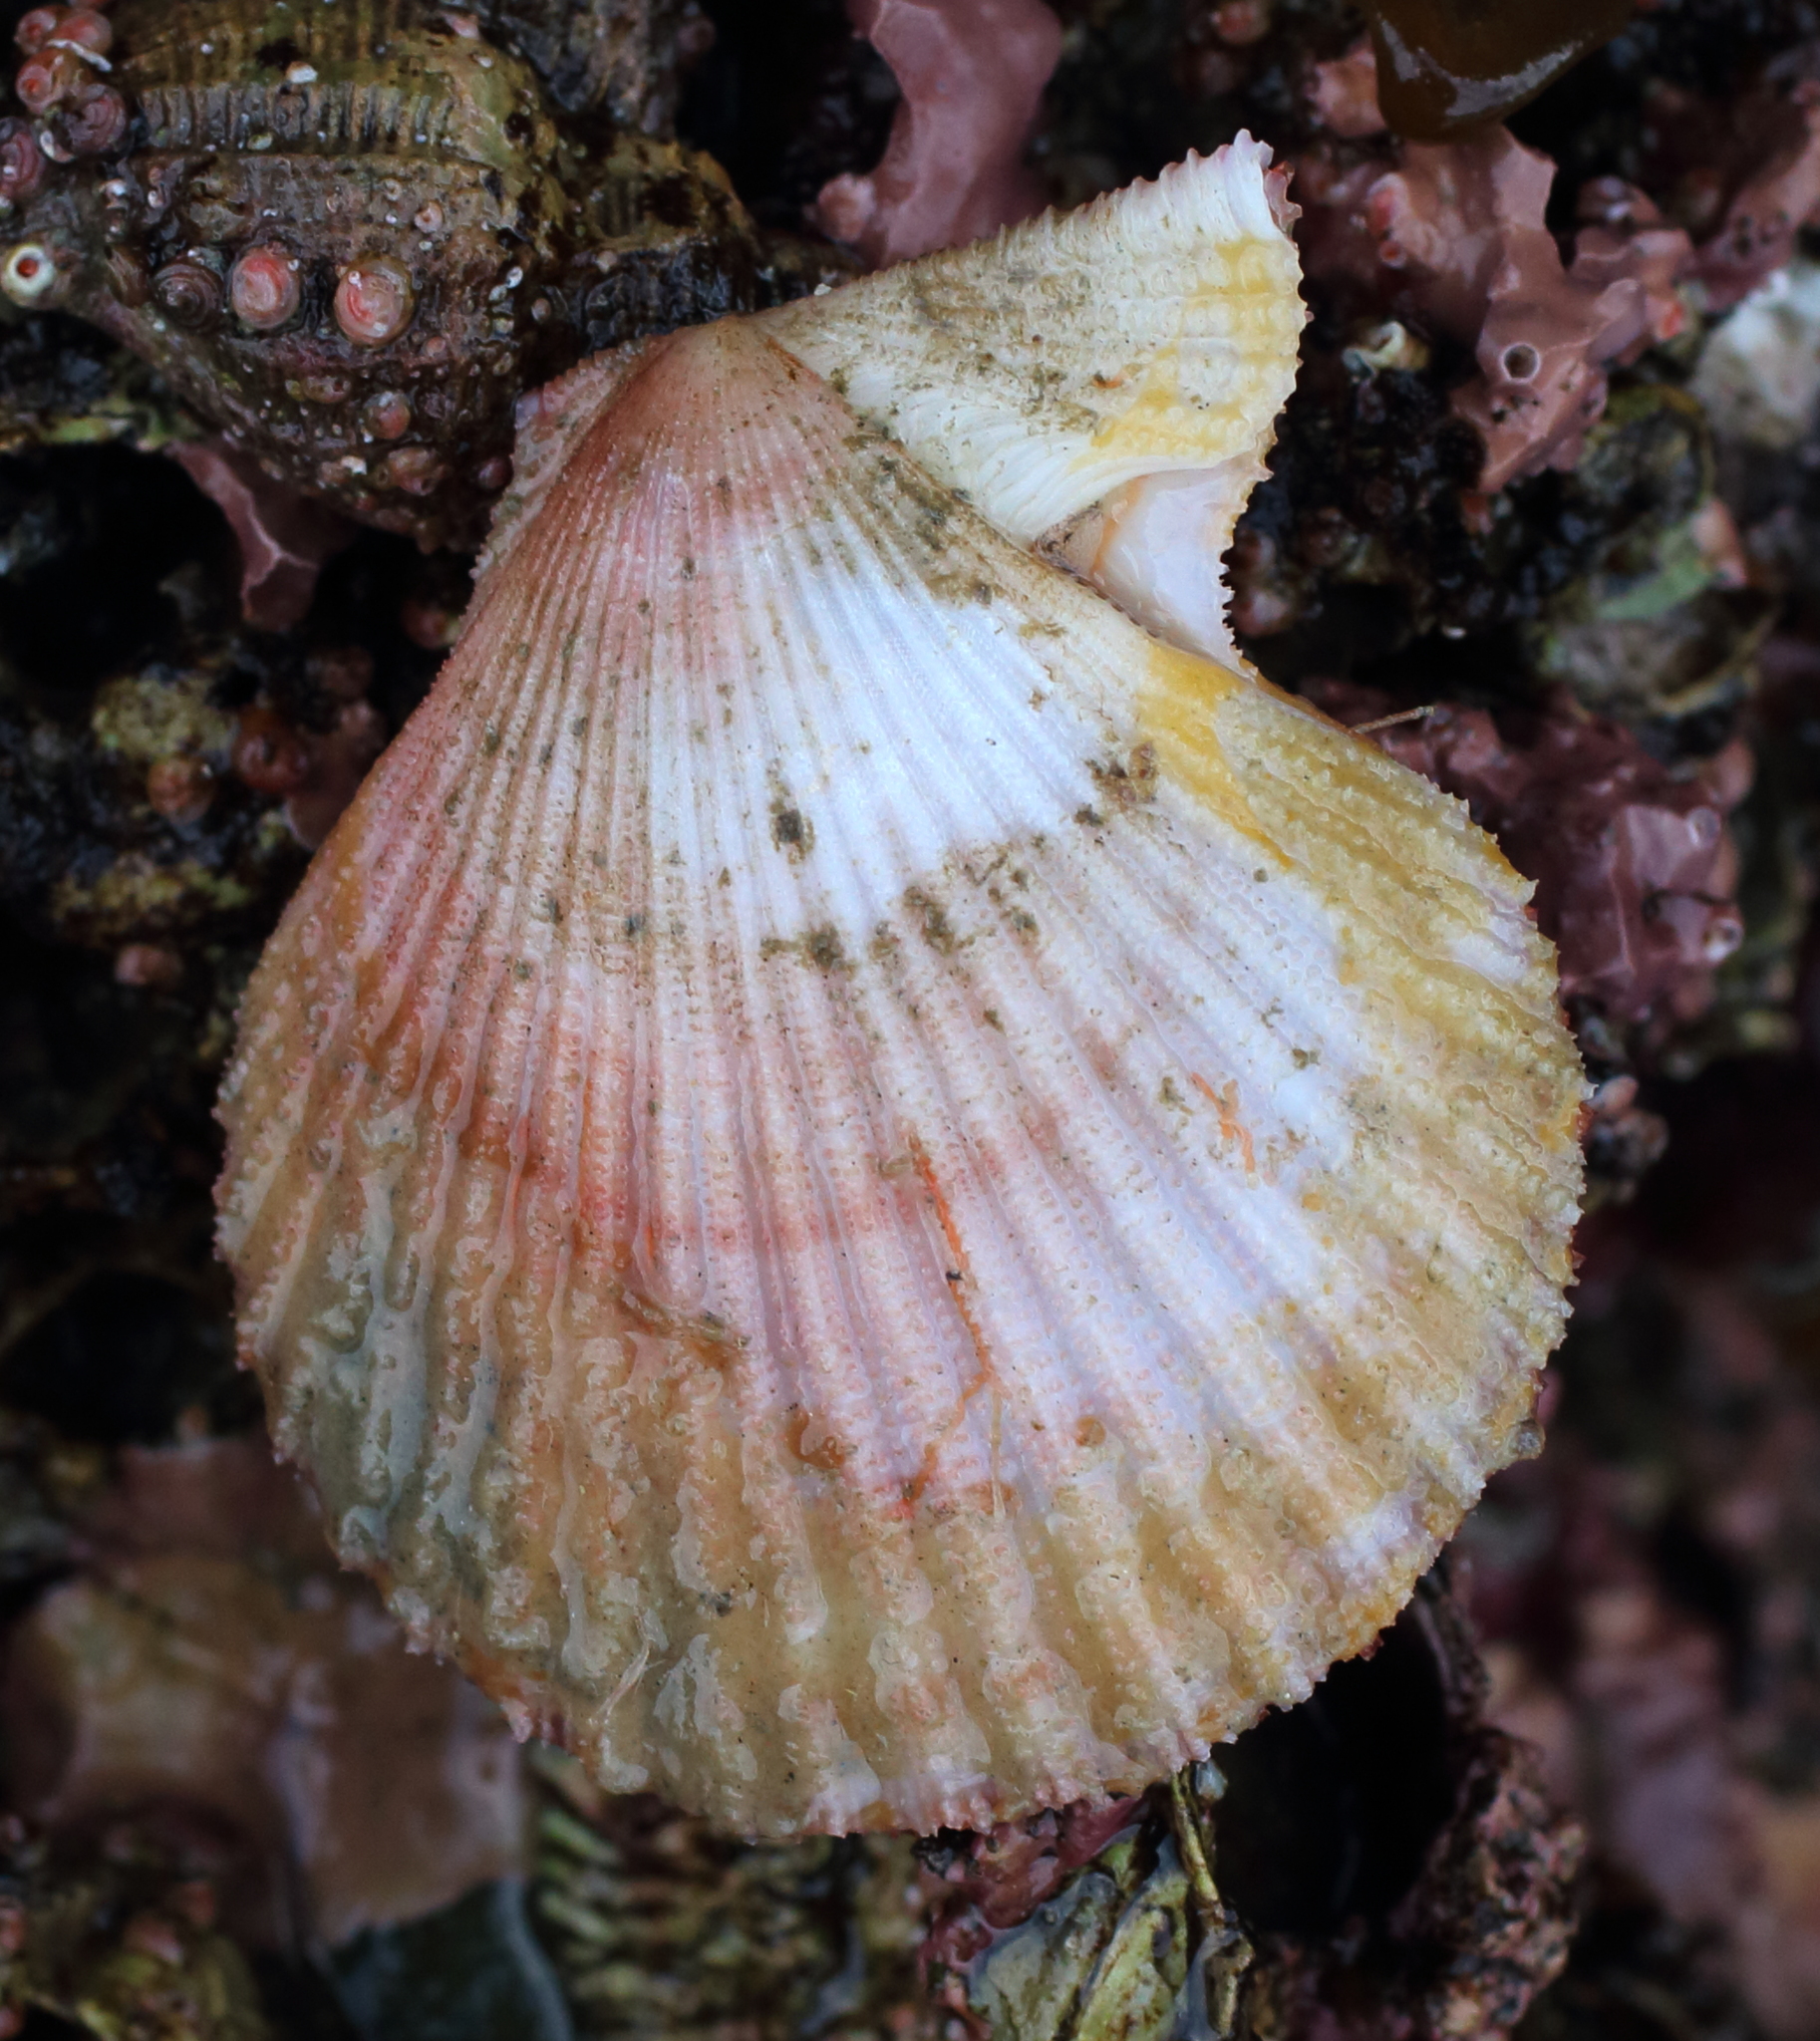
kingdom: Animalia
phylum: Mollusca
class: Bivalvia
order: Pectinida
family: Pectinidae
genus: Chlamys
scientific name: Chlamys hastata
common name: Spear scallop
